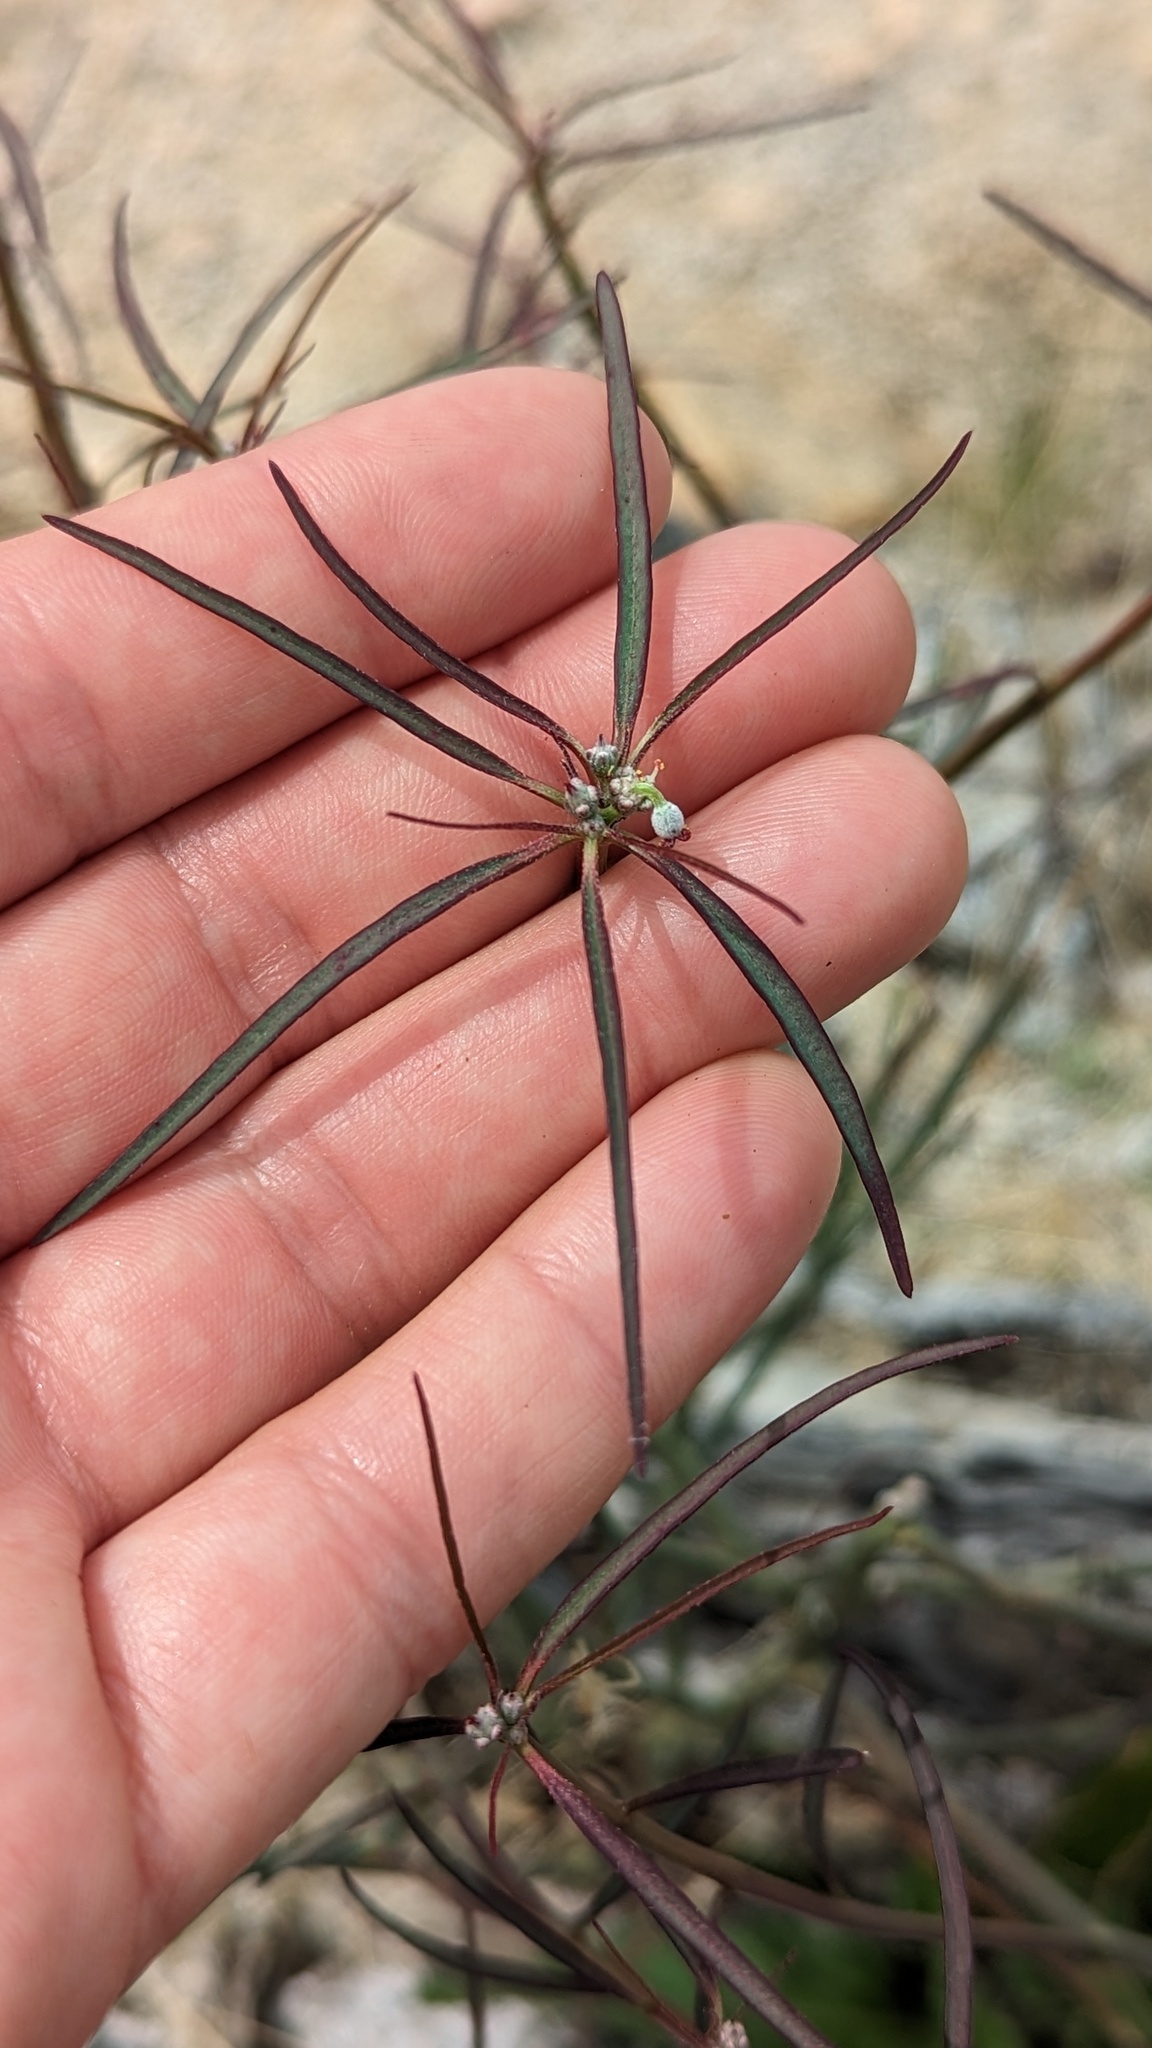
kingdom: Plantae
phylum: Tracheophyta
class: Magnoliopsida
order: Malpighiales
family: Euphorbiaceae
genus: Euphorbia
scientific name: Euphorbia eriantha
